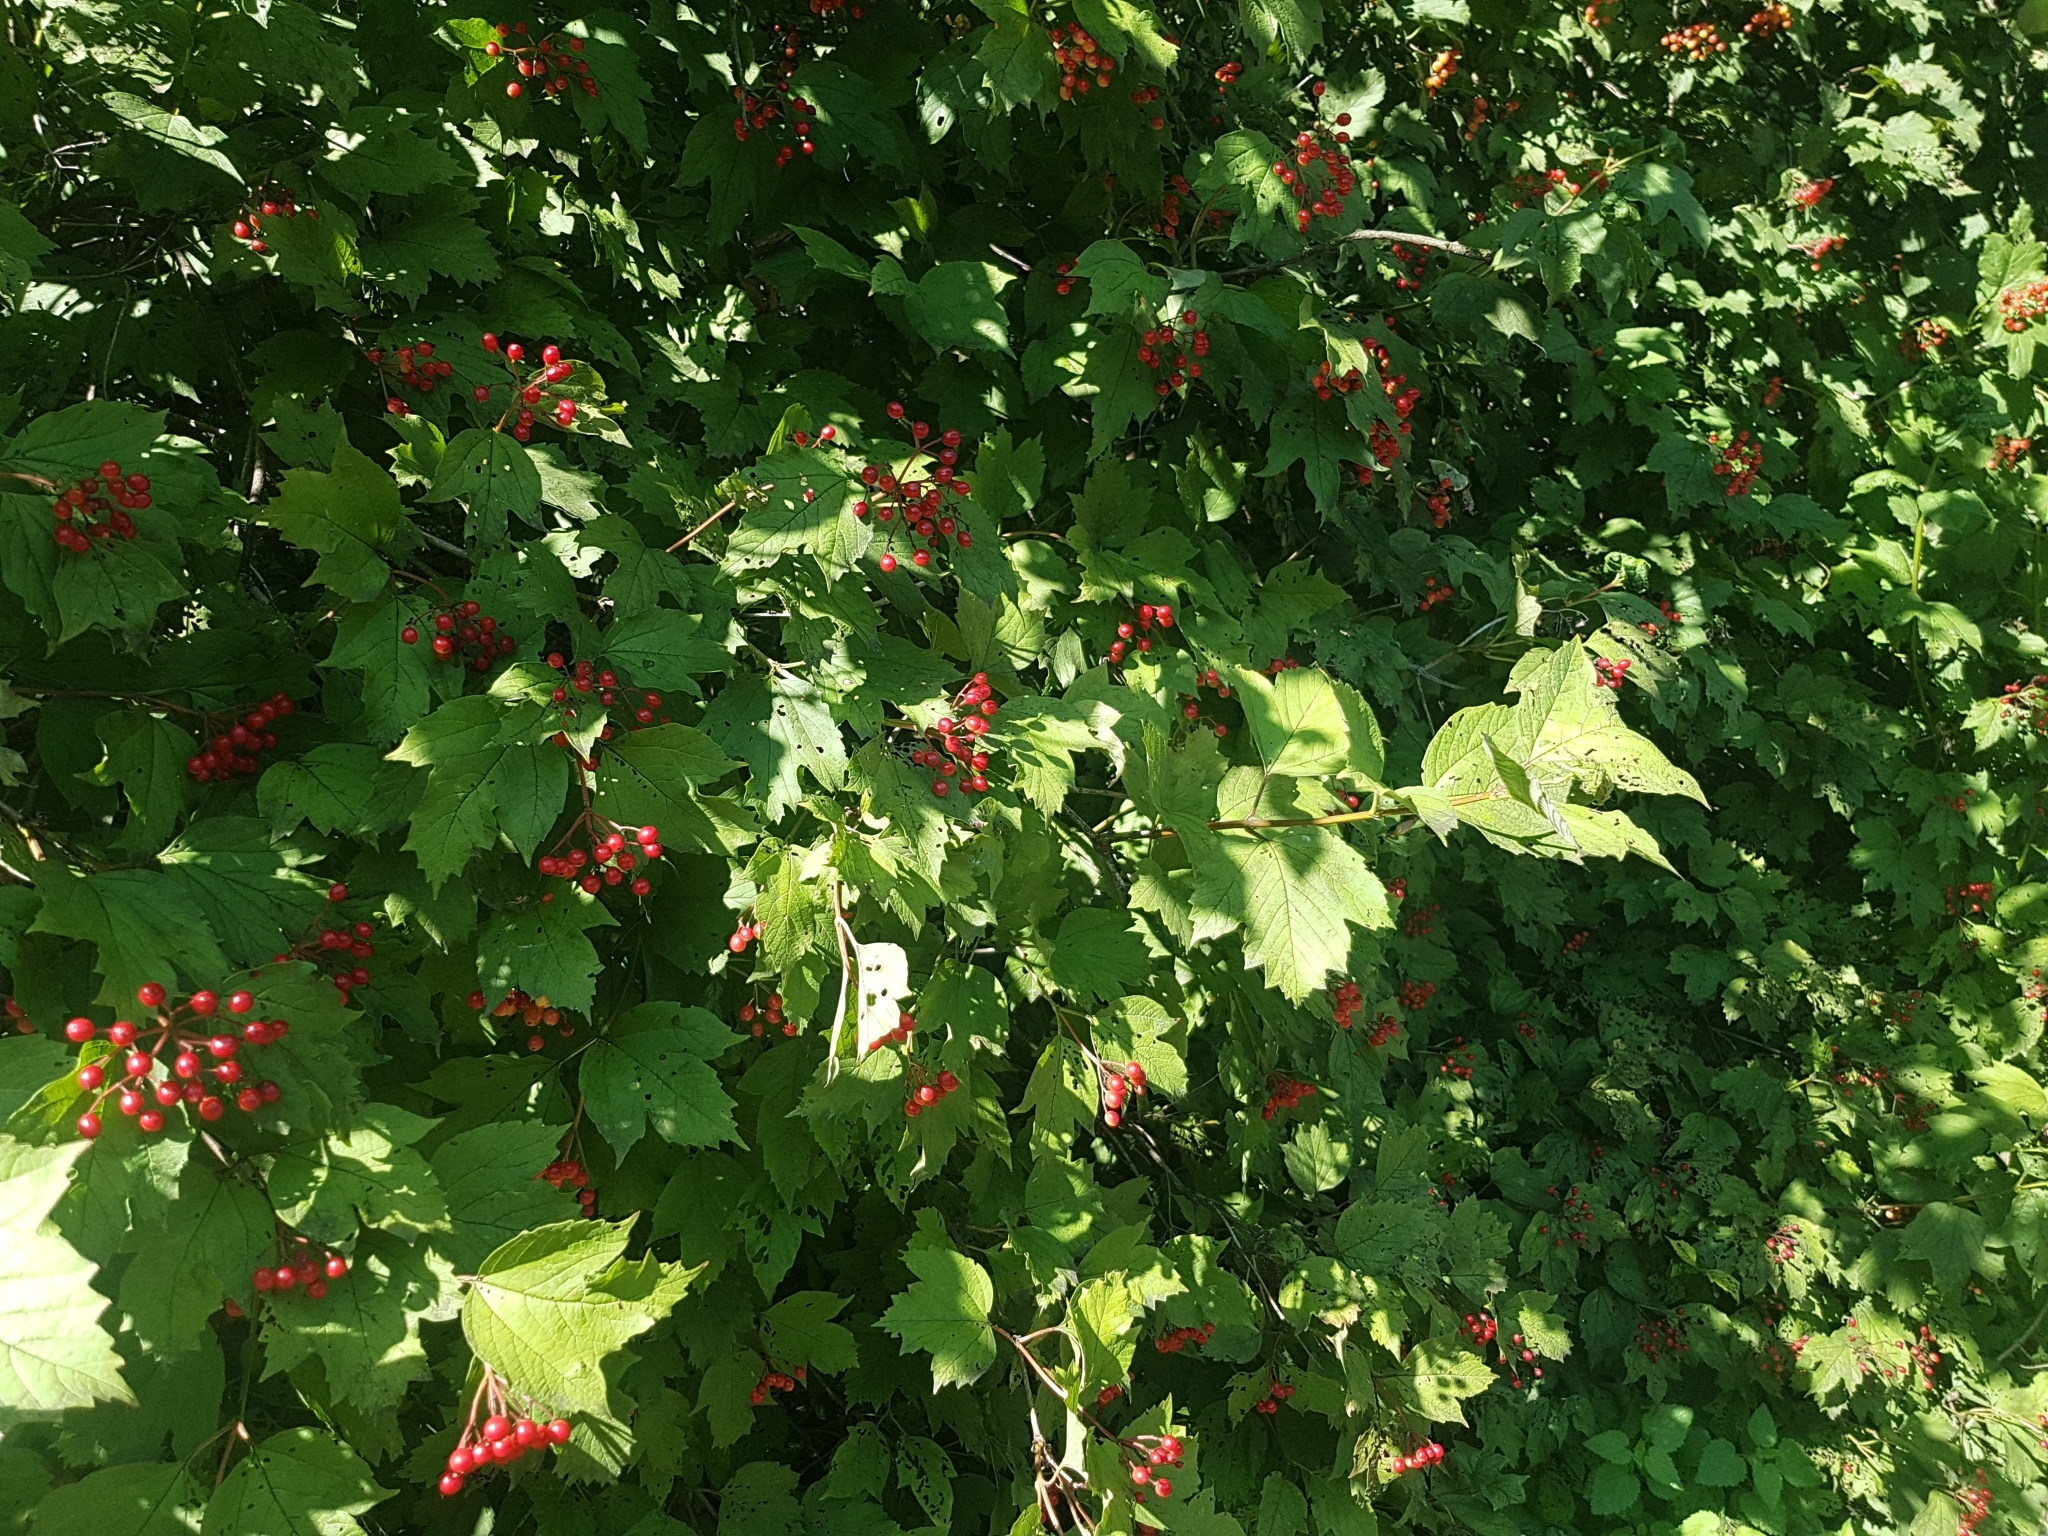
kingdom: Plantae
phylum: Tracheophyta
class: Magnoliopsida
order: Dipsacales
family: Viburnaceae
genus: Viburnum
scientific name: Viburnum opulus
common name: Guelder-rose
